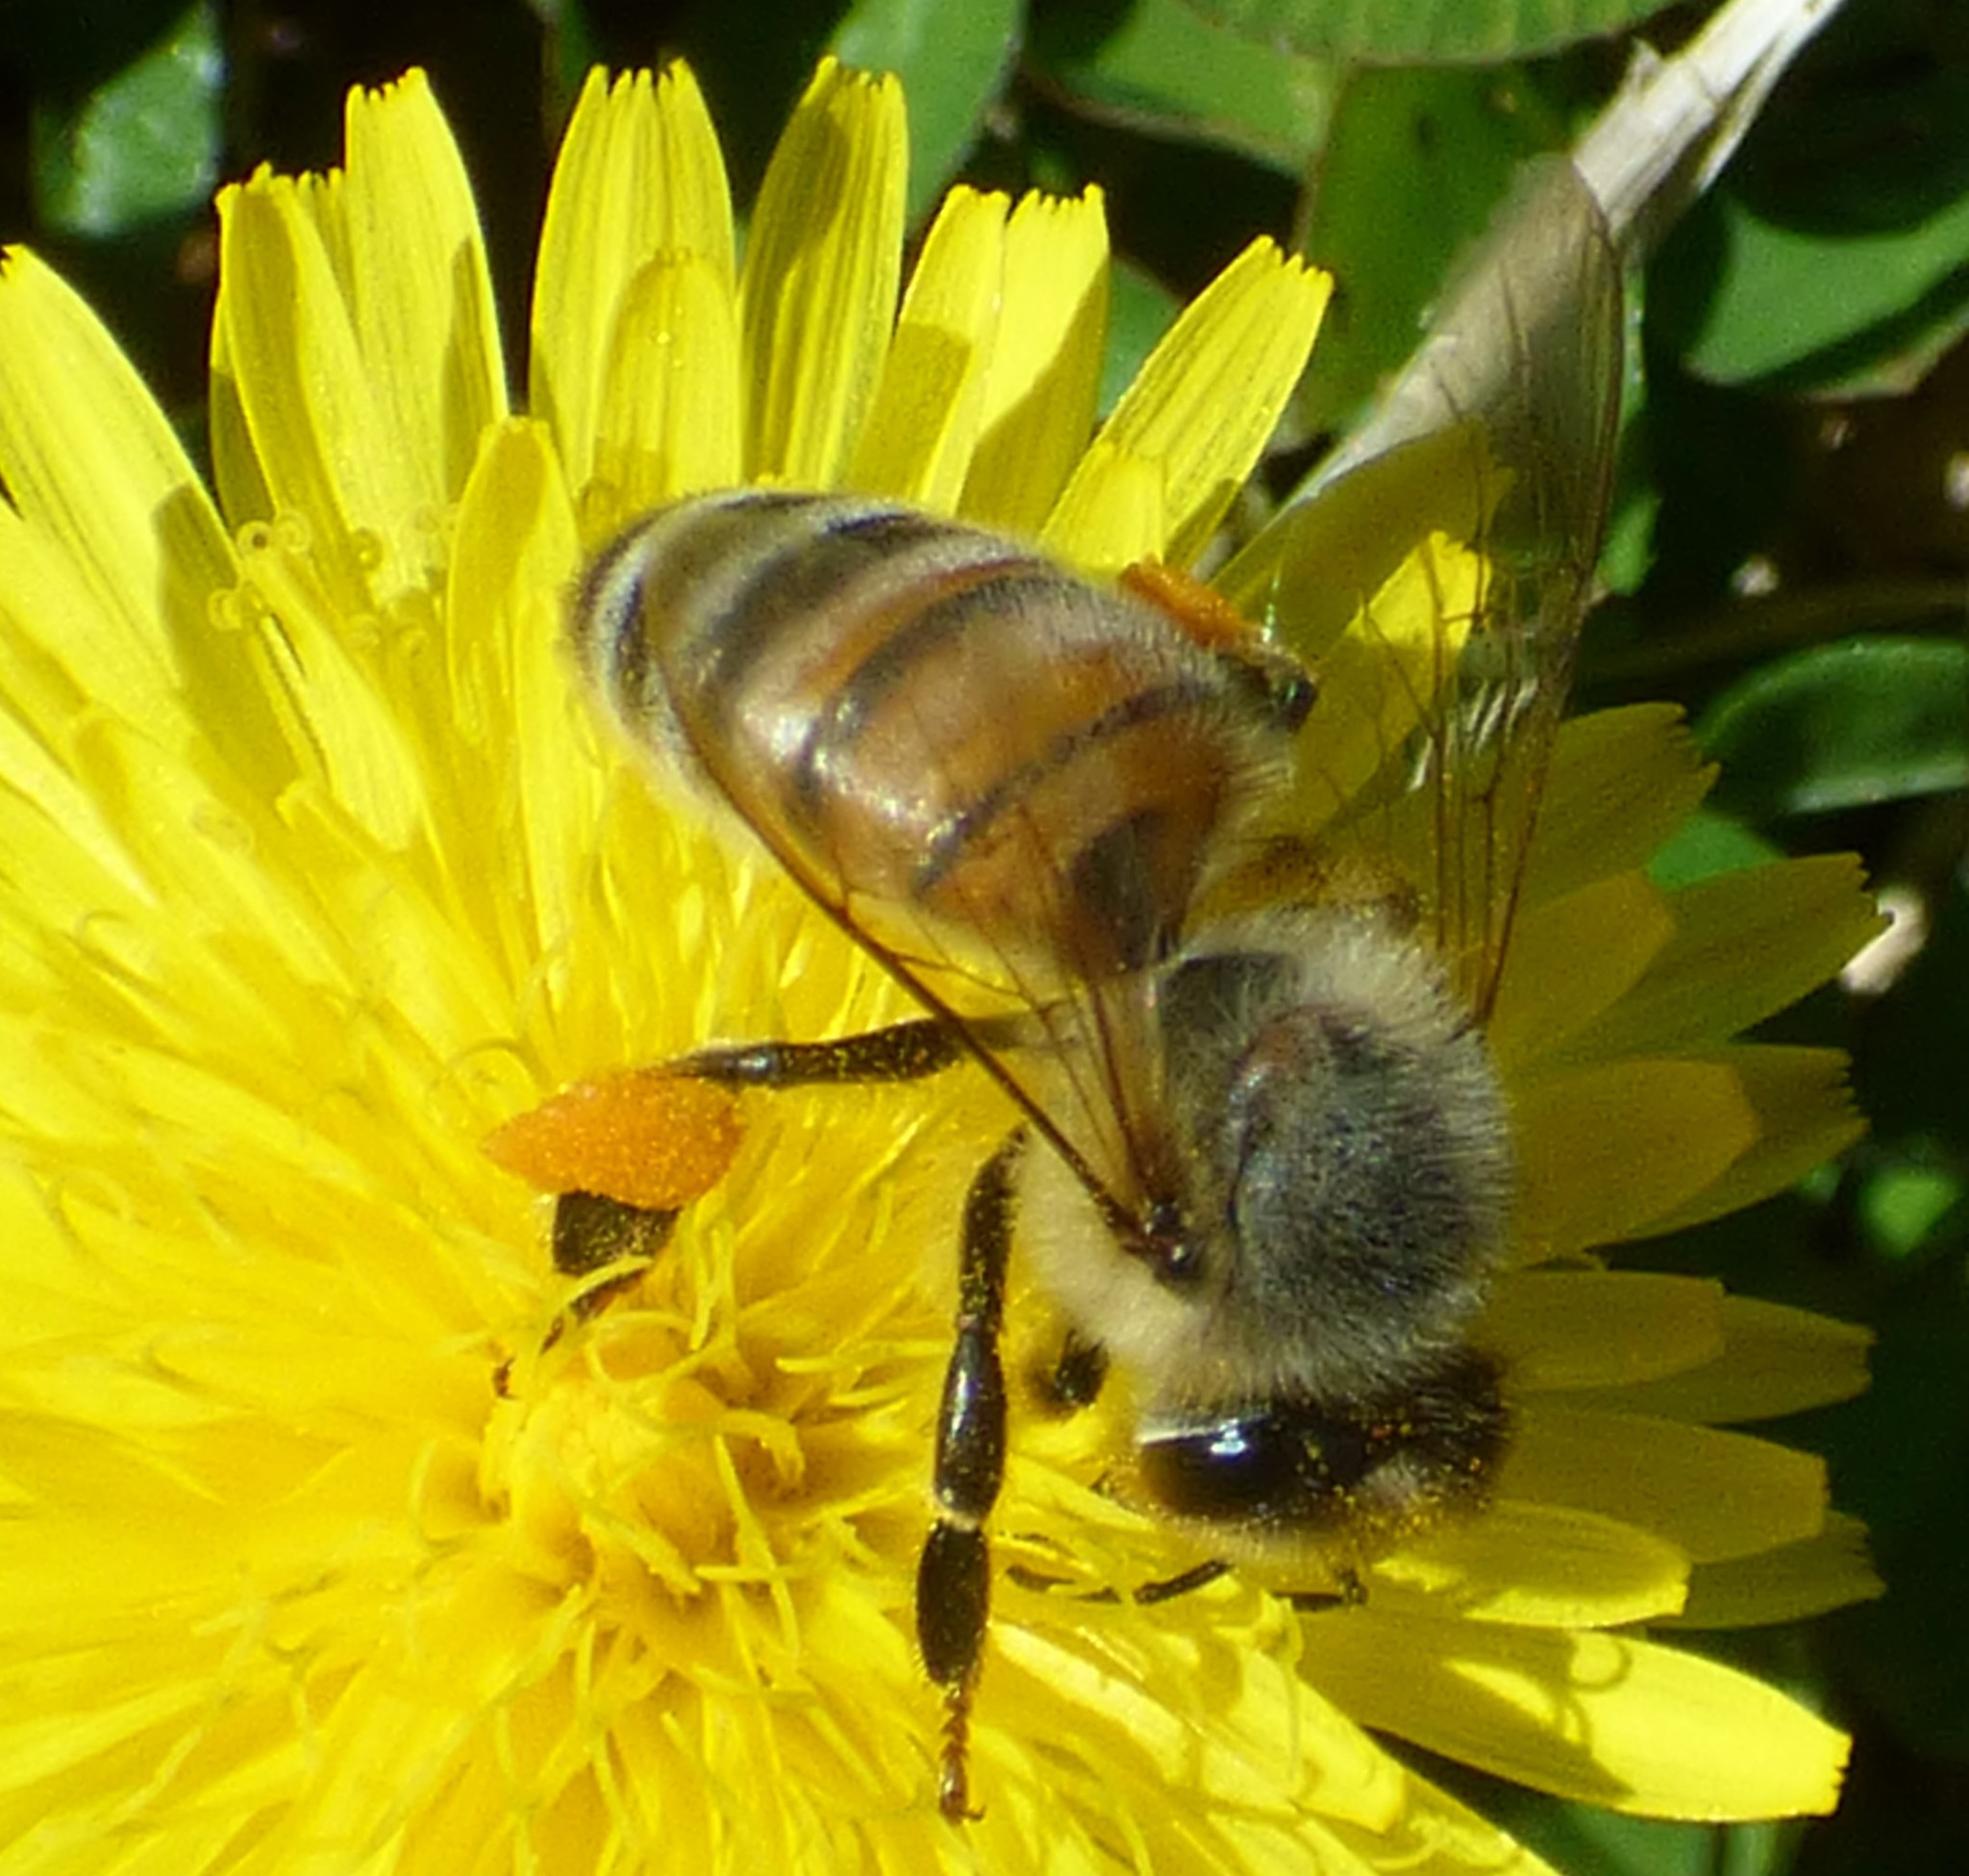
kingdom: Animalia
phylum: Arthropoda
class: Insecta
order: Hymenoptera
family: Apidae
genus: Apis
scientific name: Apis mellifera
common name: Honey bee
